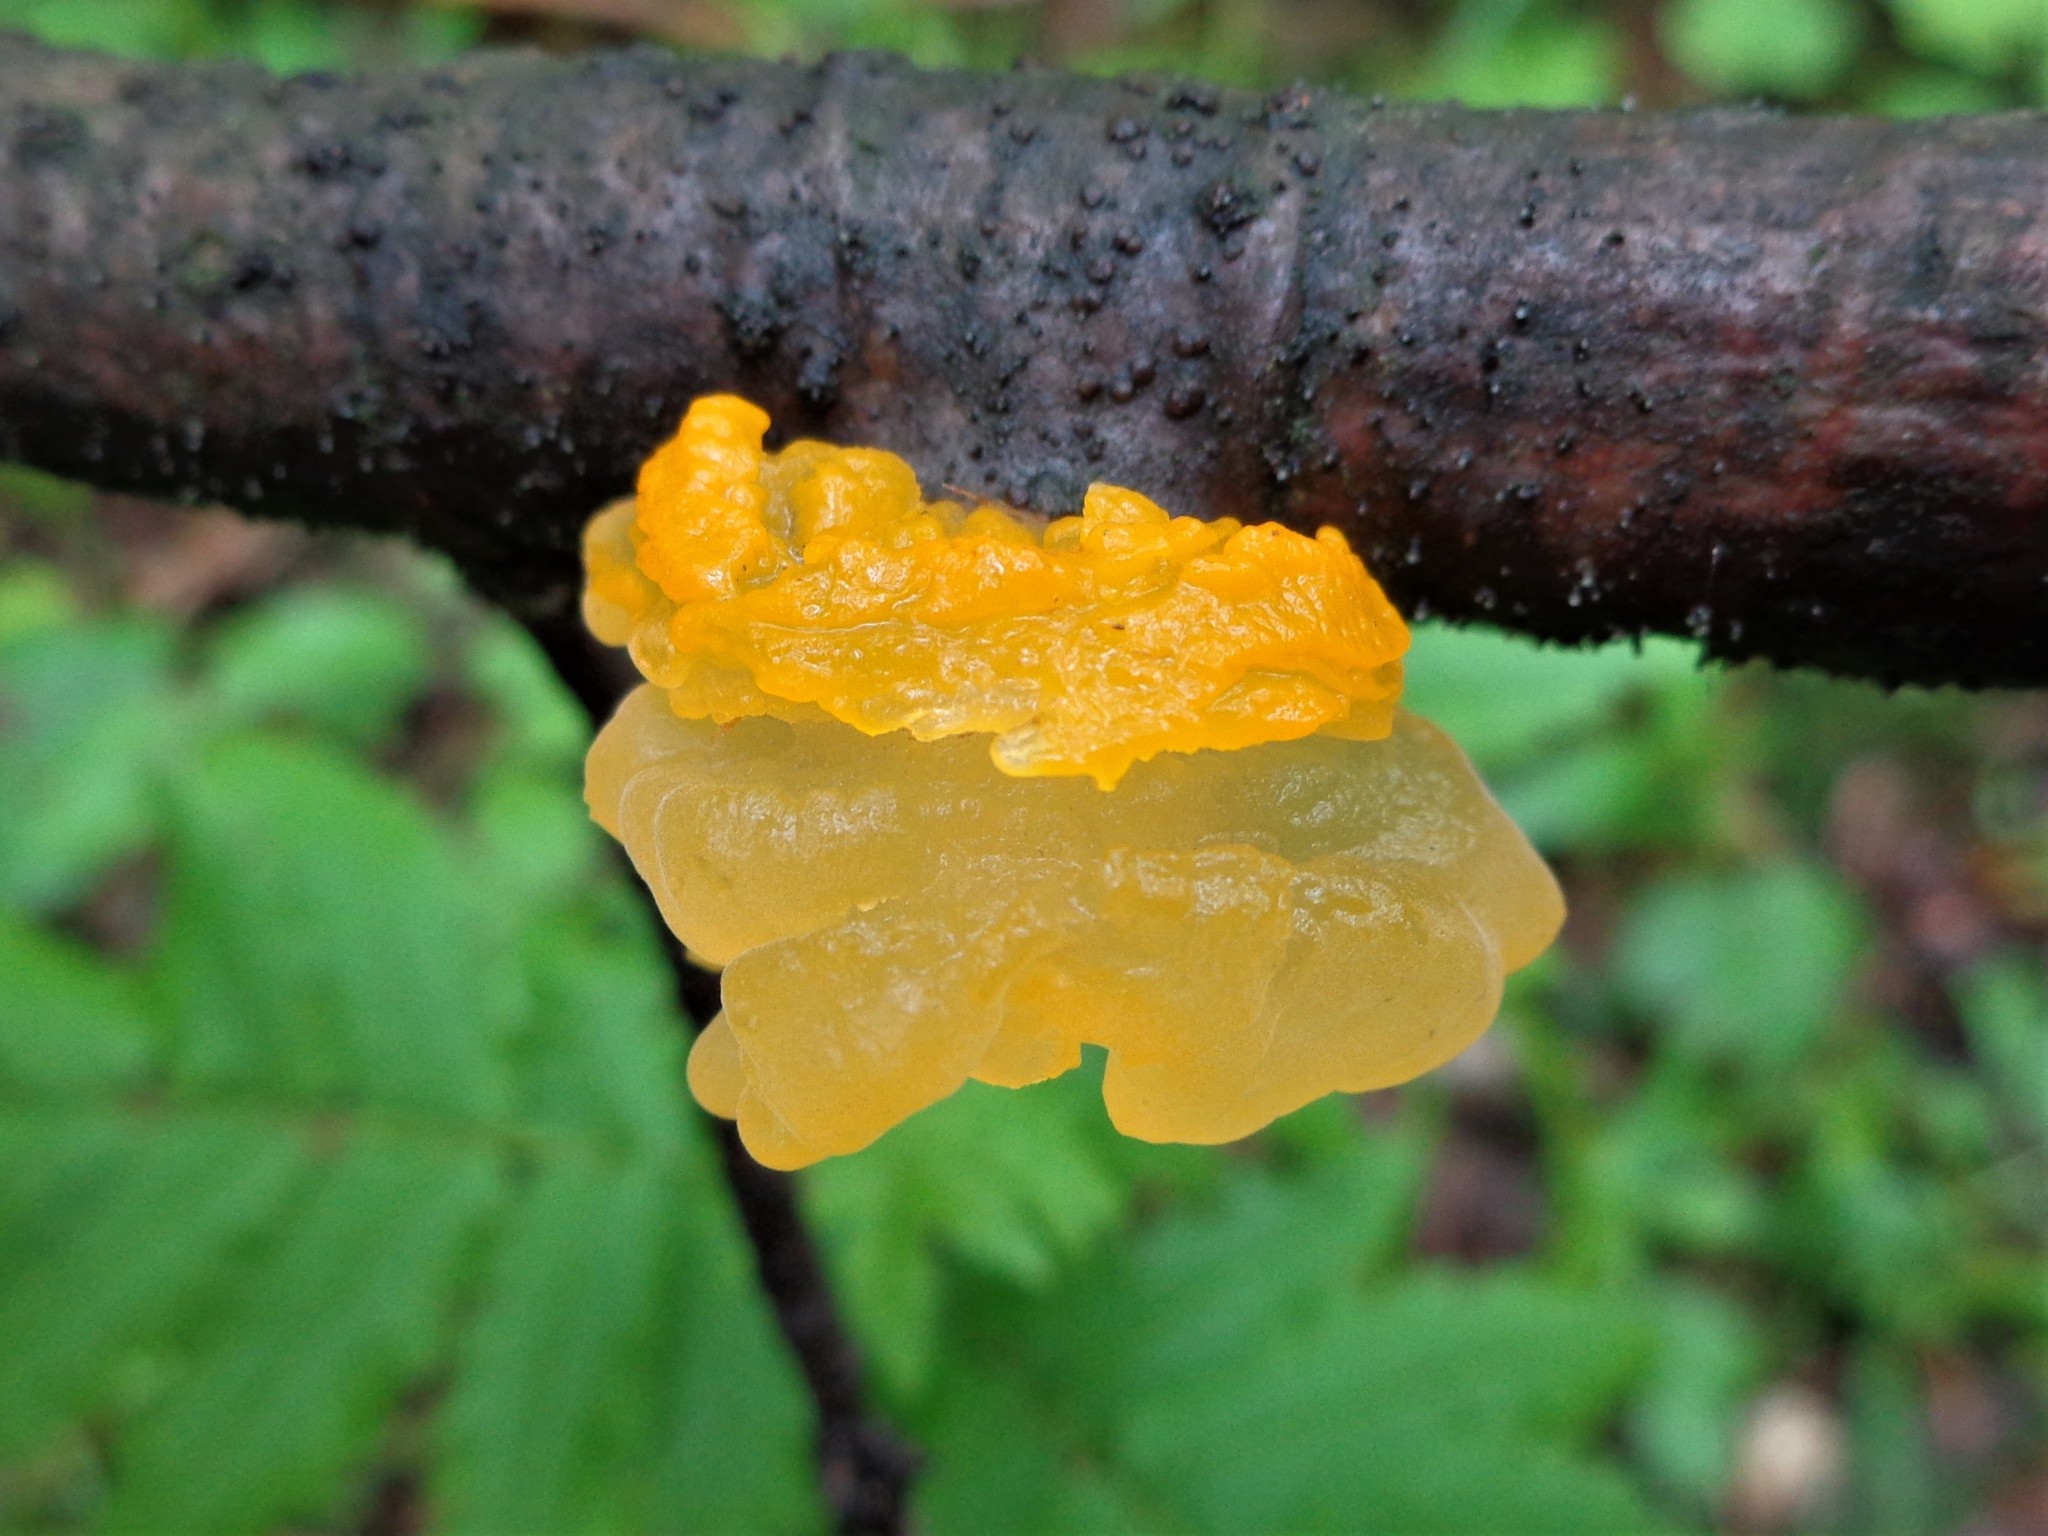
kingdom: Fungi
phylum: Basidiomycota
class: Tremellomycetes
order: Tremellales
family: Tremellaceae
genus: Tremella
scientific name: Tremella mesenterica
